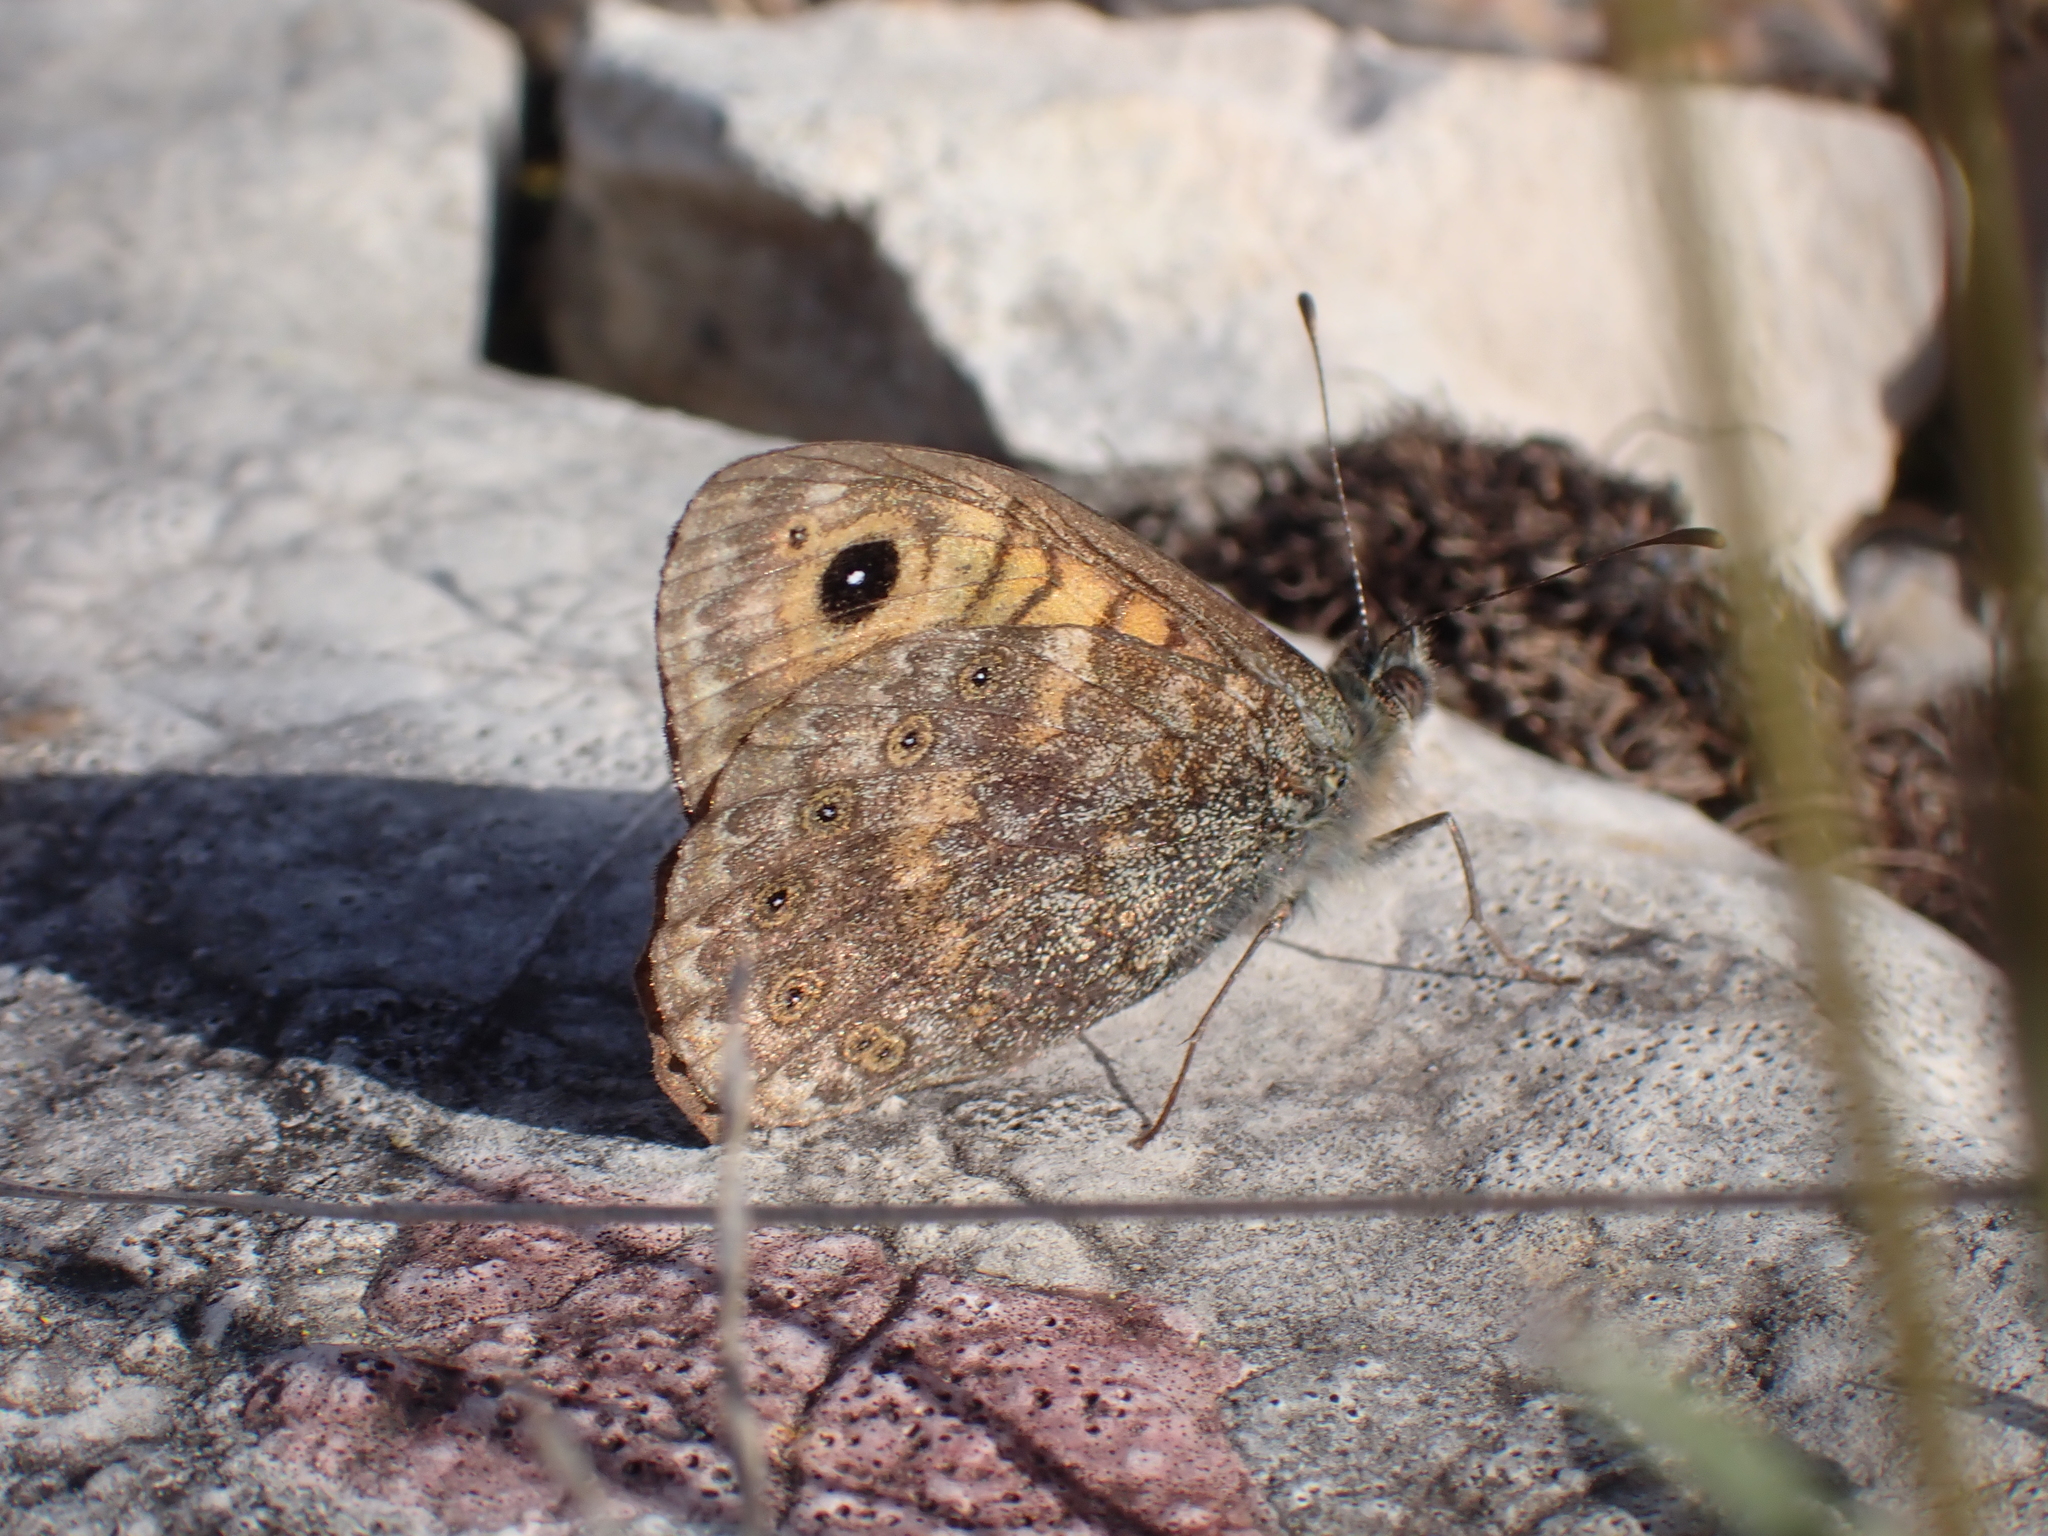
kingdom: Animalia
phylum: Arthropoda
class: Insecta
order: Lepidoptera
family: Nymphalidae
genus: Pararge
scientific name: Pararge Lasiommata megera
